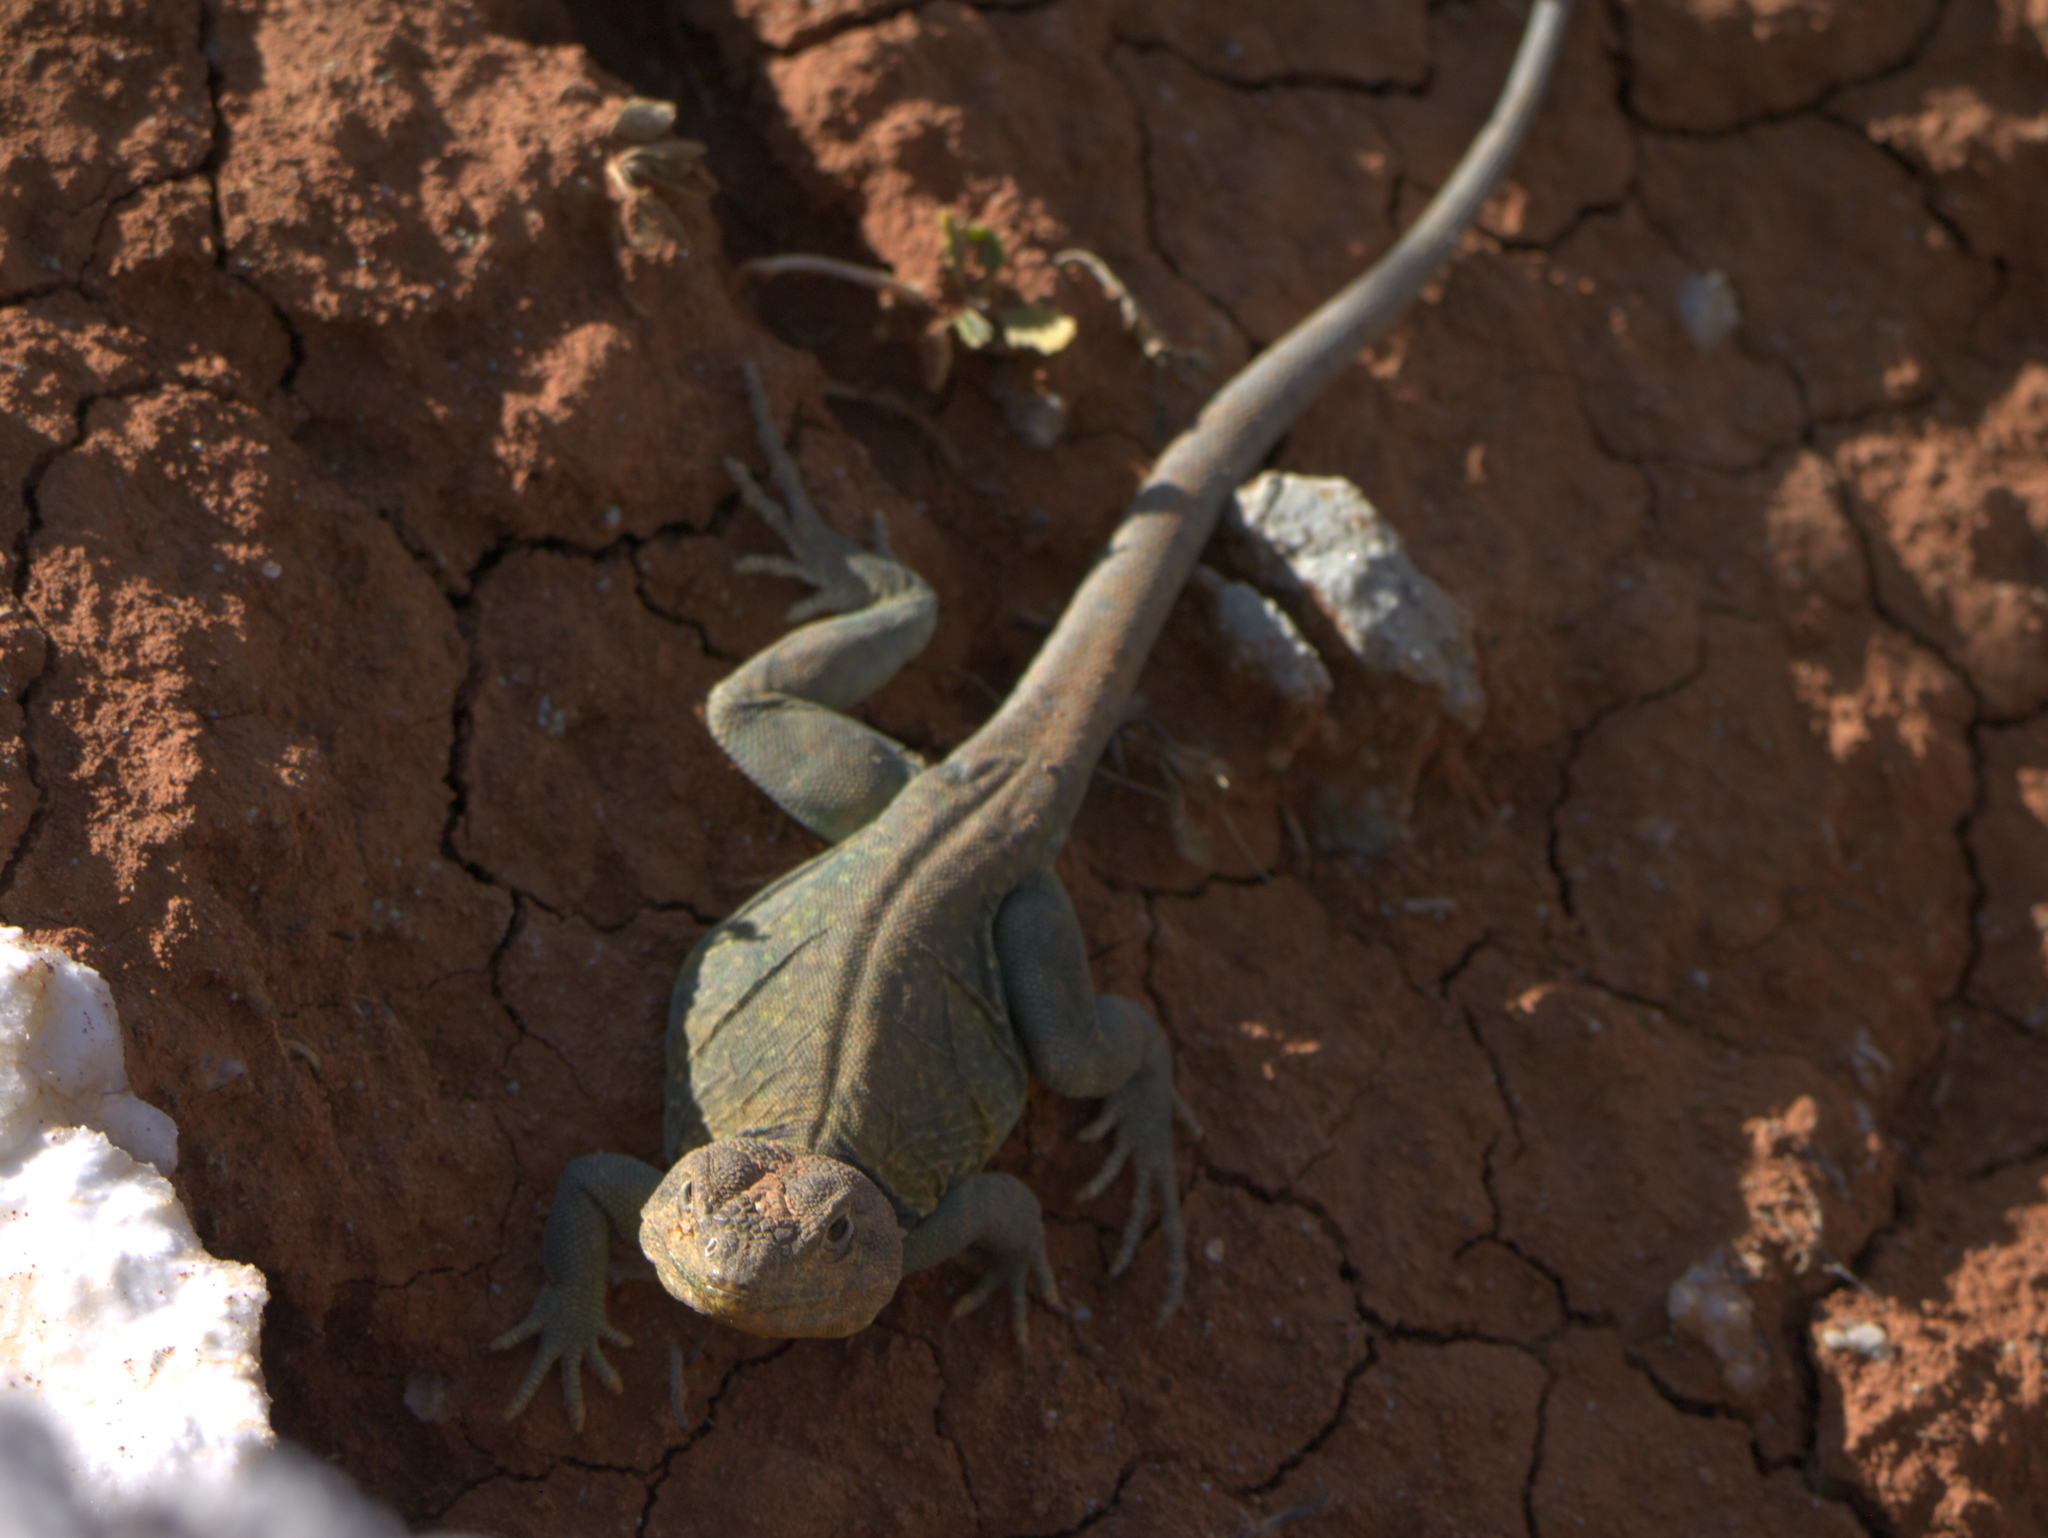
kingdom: Animalia
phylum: Chordata
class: Squamata
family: Crotaphytidae
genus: Crotaphytus
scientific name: Crotaphytus collaris
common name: Collared lizard
